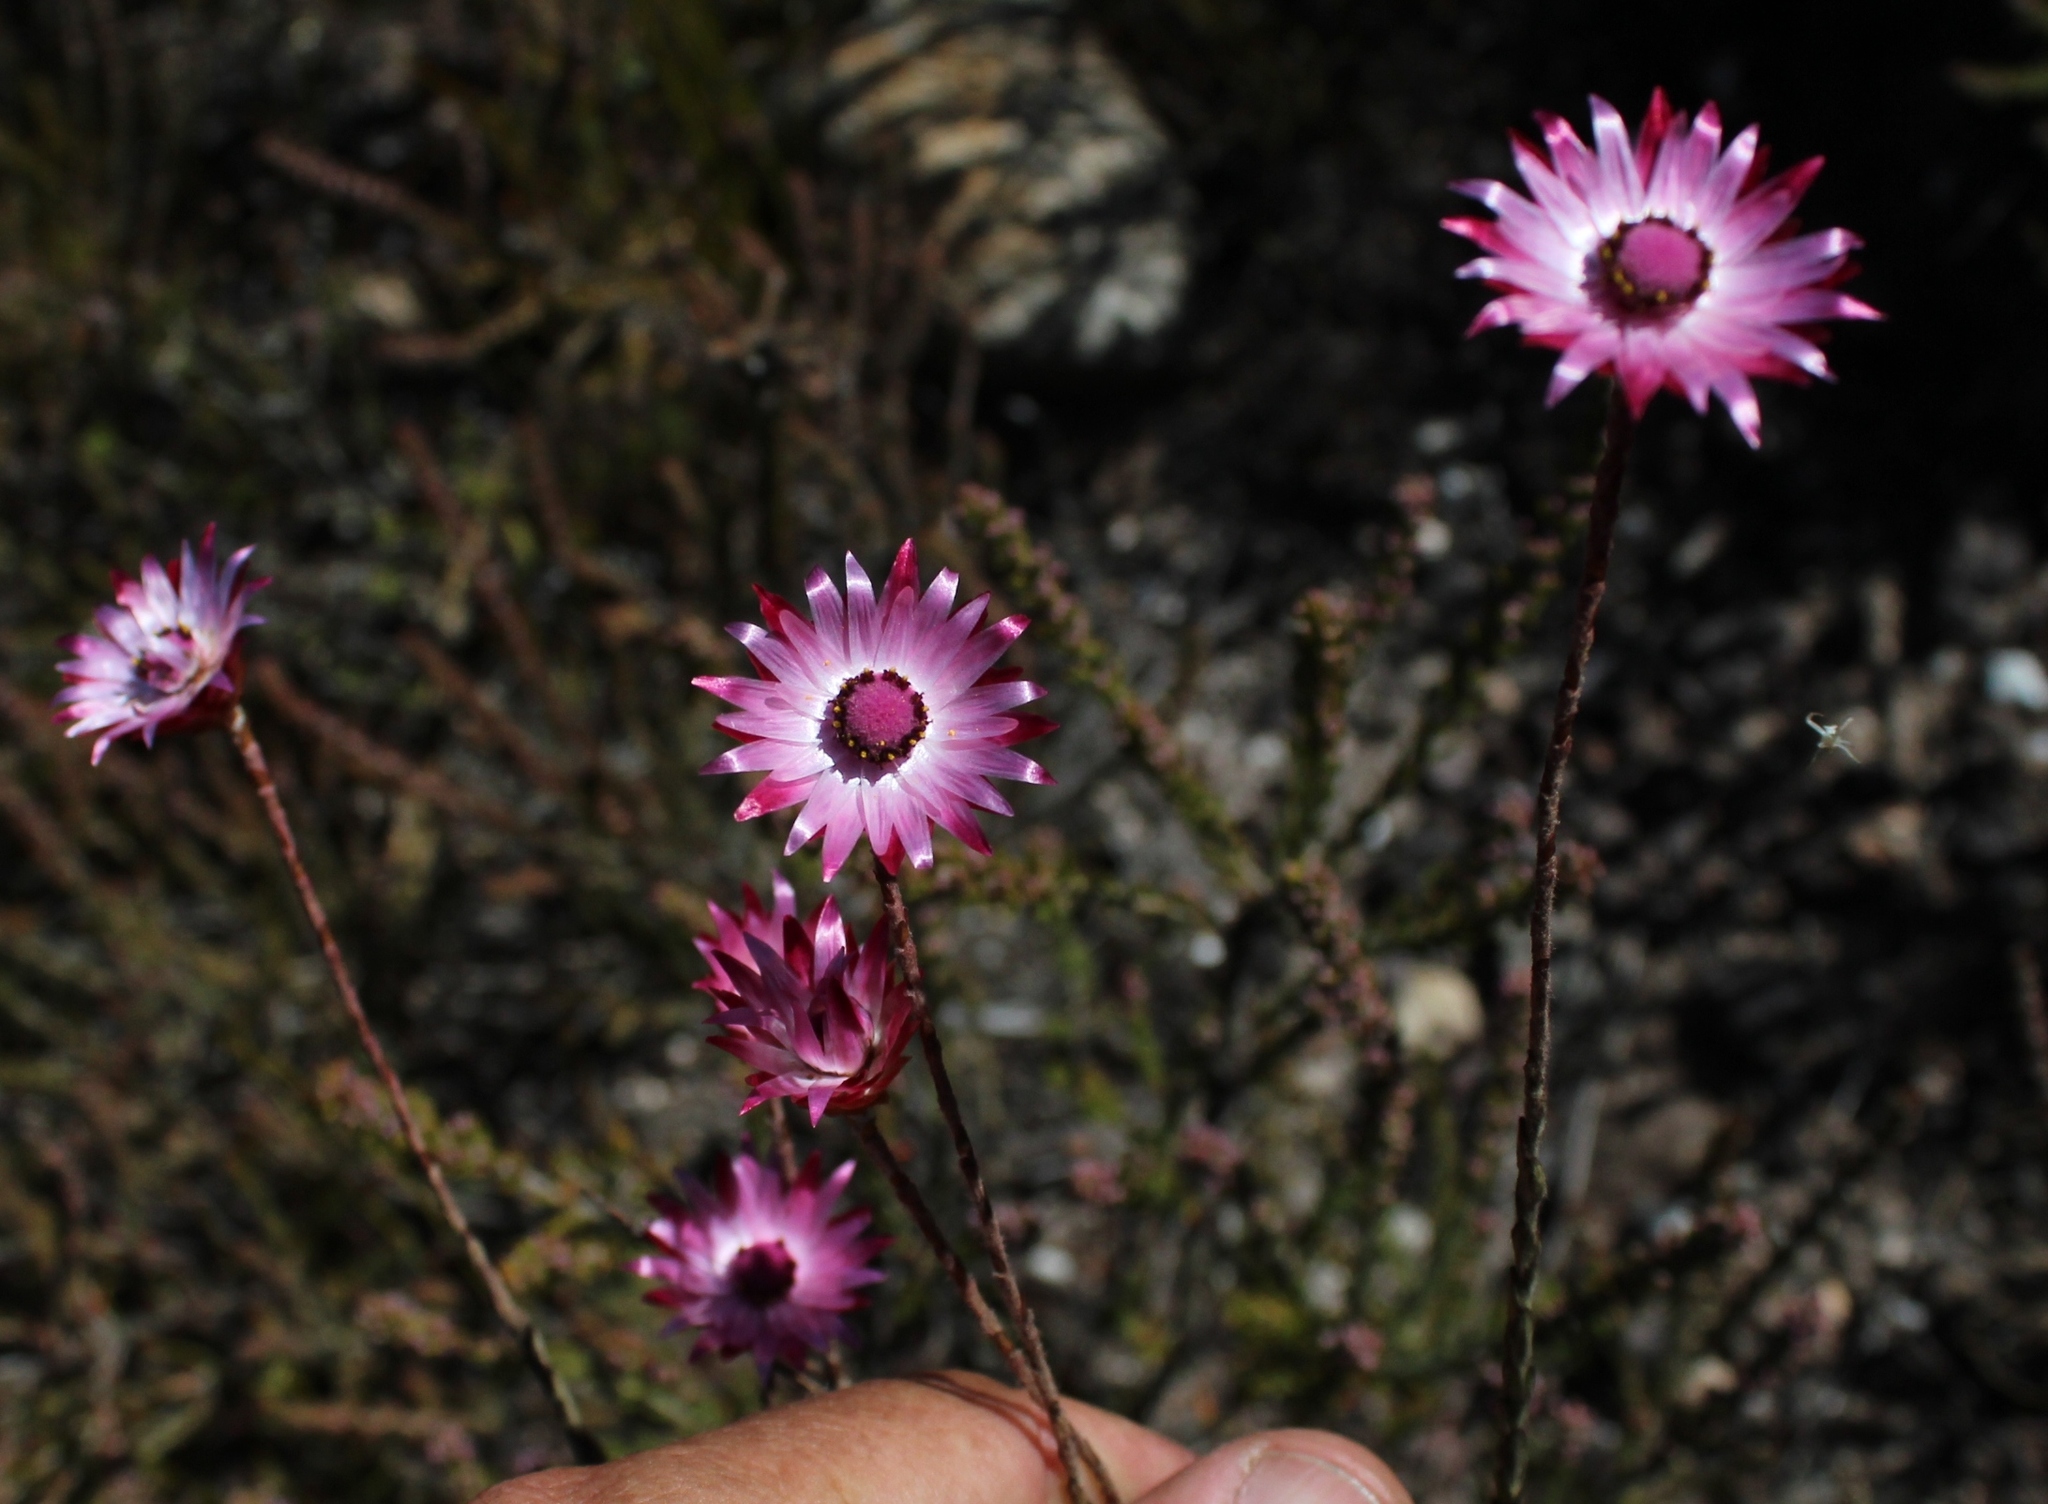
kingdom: Plantae
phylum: Tracheophyta
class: Magnoliopsida
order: Asterales
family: Asteraceae
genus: Syncarpha
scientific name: Syncarpha canescens
